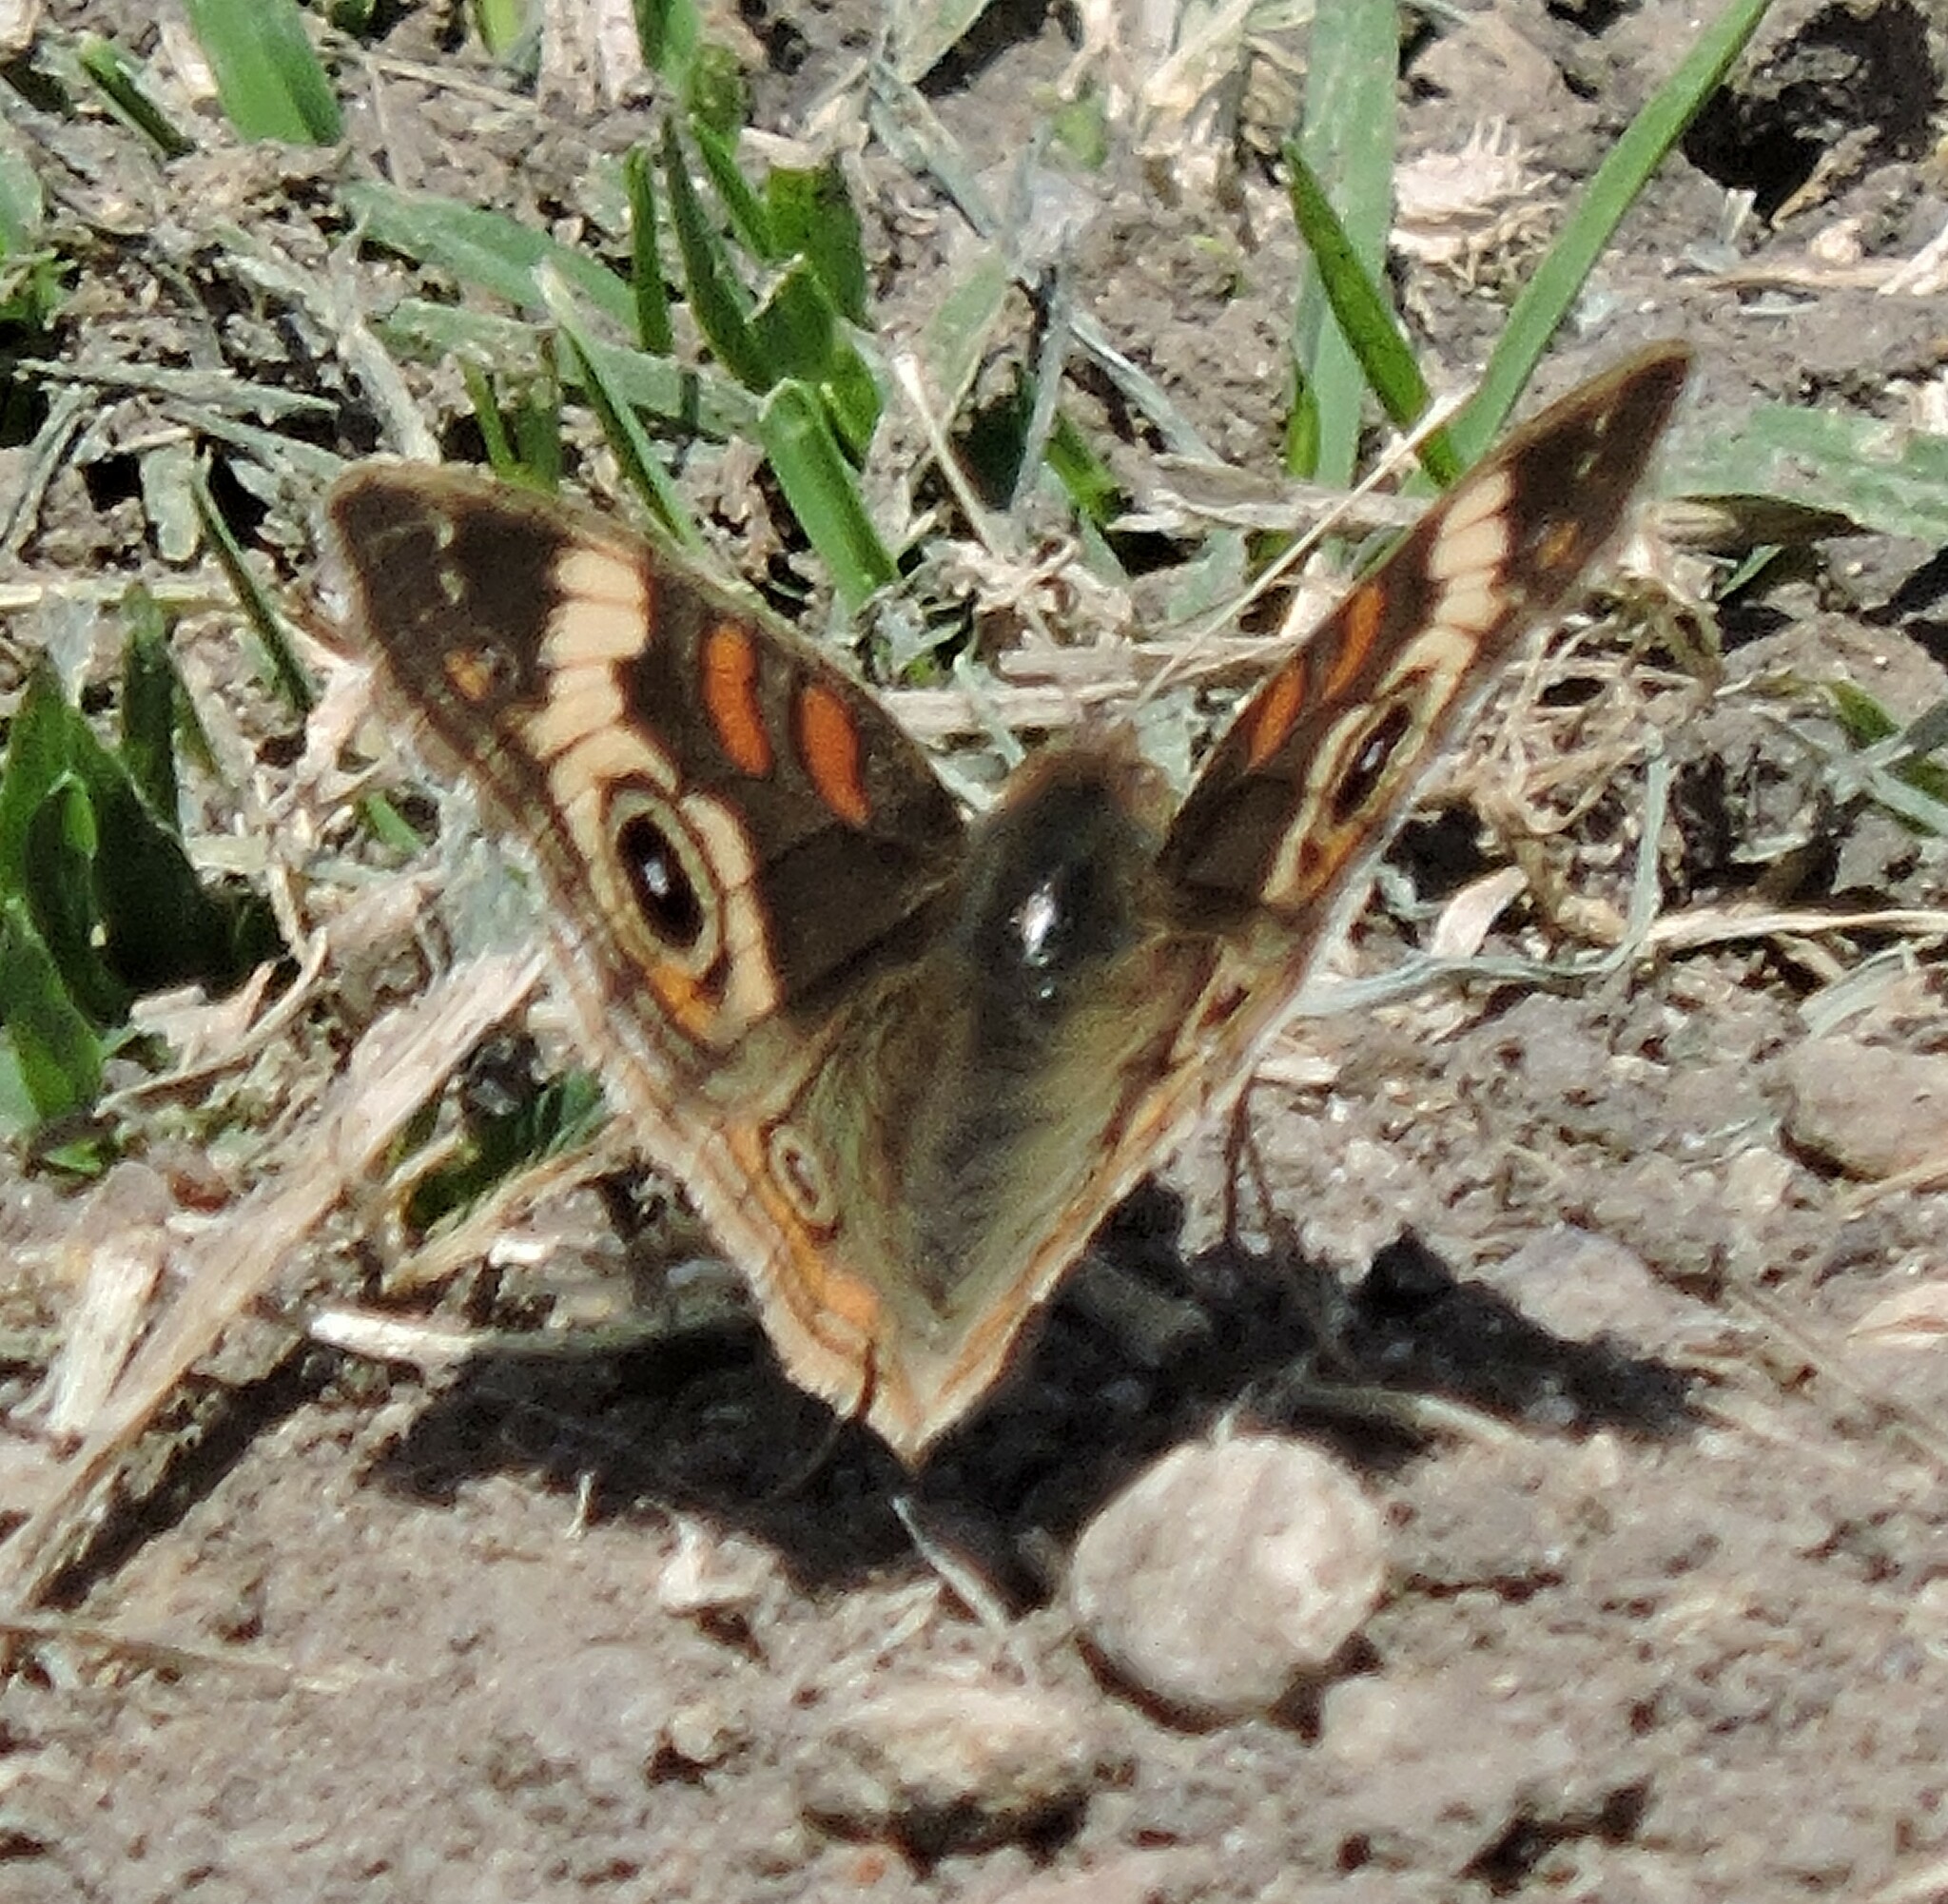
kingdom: Animalia
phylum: Arthropoda
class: Insecta
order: Lepidoptera
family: Nymphalidae
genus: Junonia
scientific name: Junonia grisea
